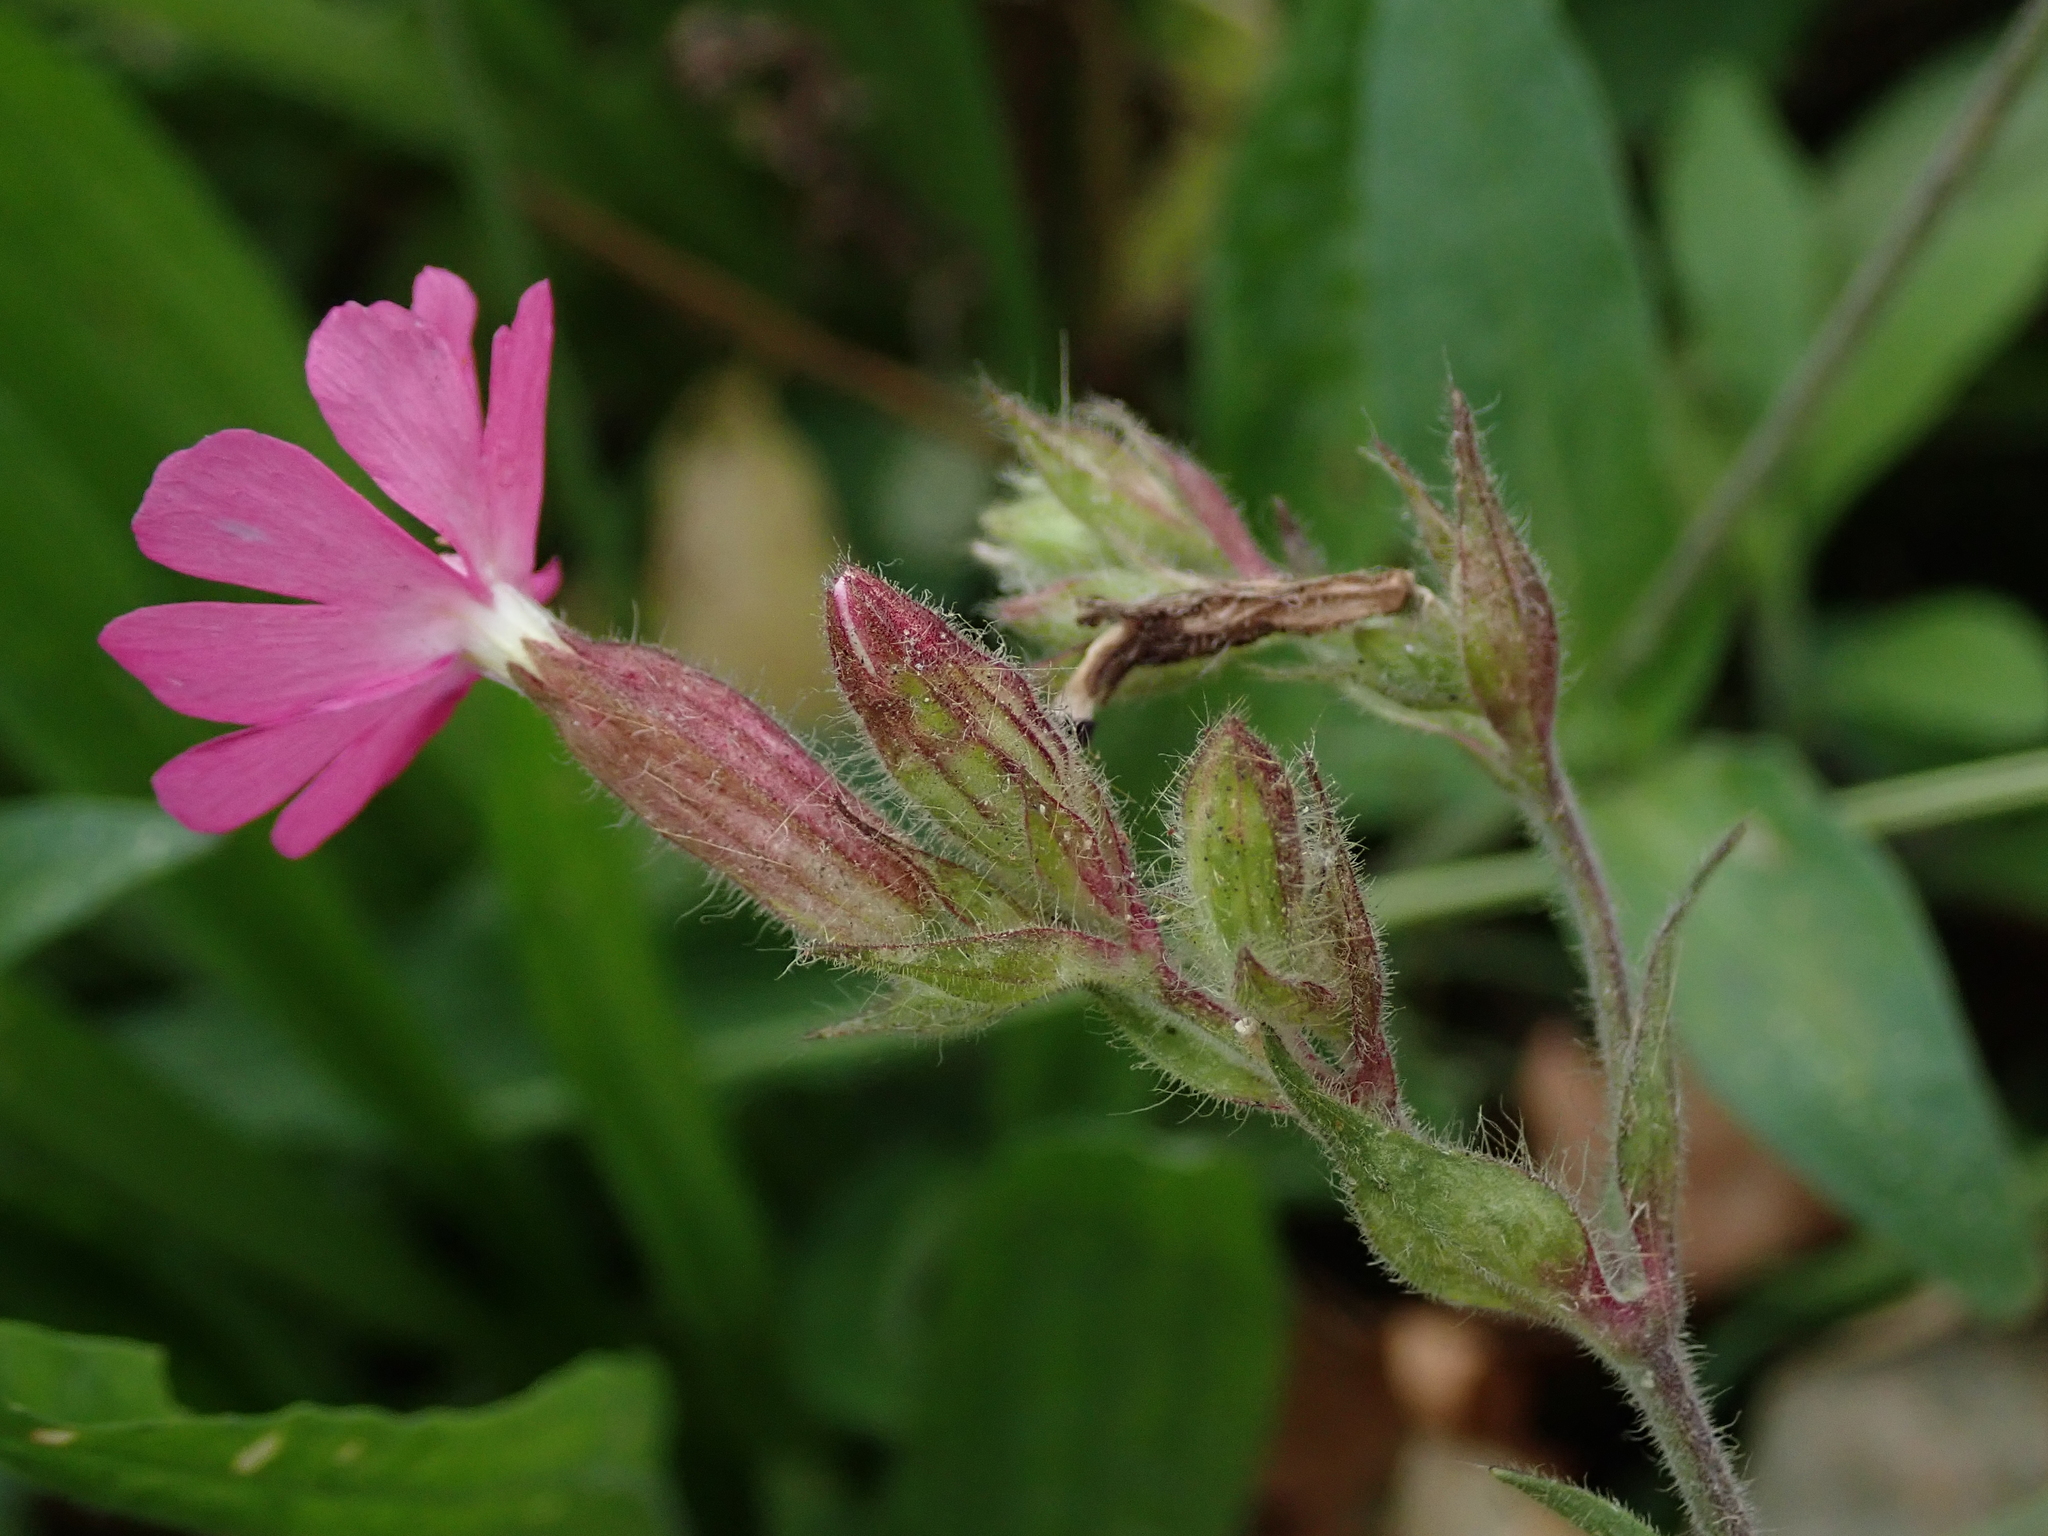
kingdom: Plantae
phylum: Tracheophyta
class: Magnoliopsida
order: Caryophyllales
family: Caryophyllaceae
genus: Silene
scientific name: Silene dioica
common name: Red campion
